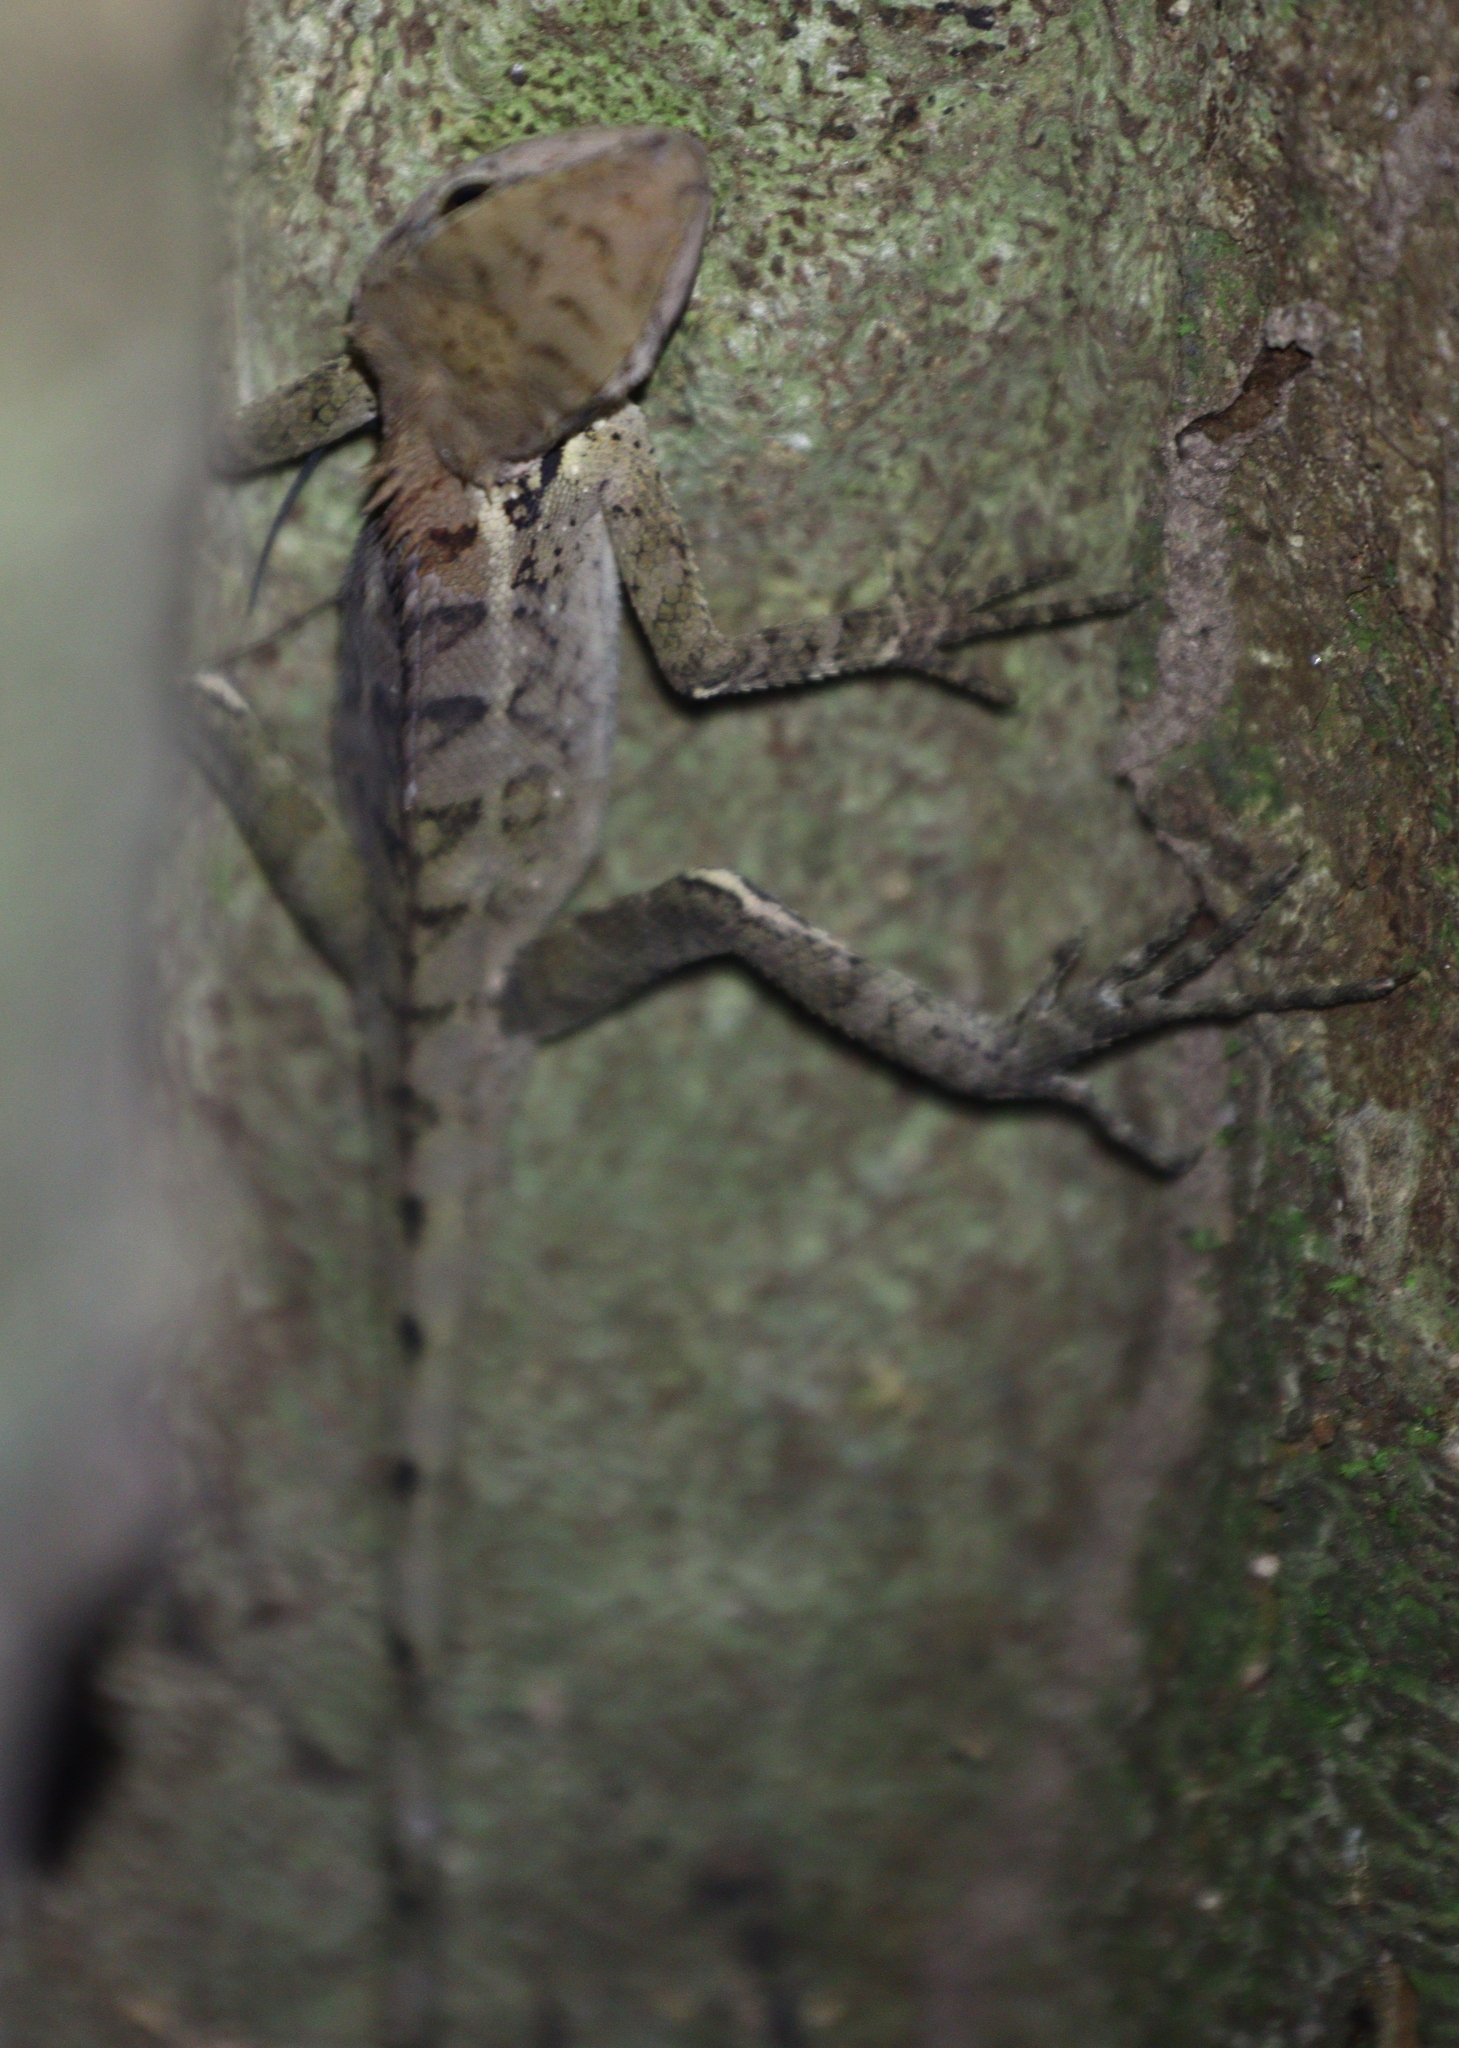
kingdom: Animalia
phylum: Chordata
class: Squamata
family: Agamidae
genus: Calotes
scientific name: Calotes emma
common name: Thailand bloodsucker
